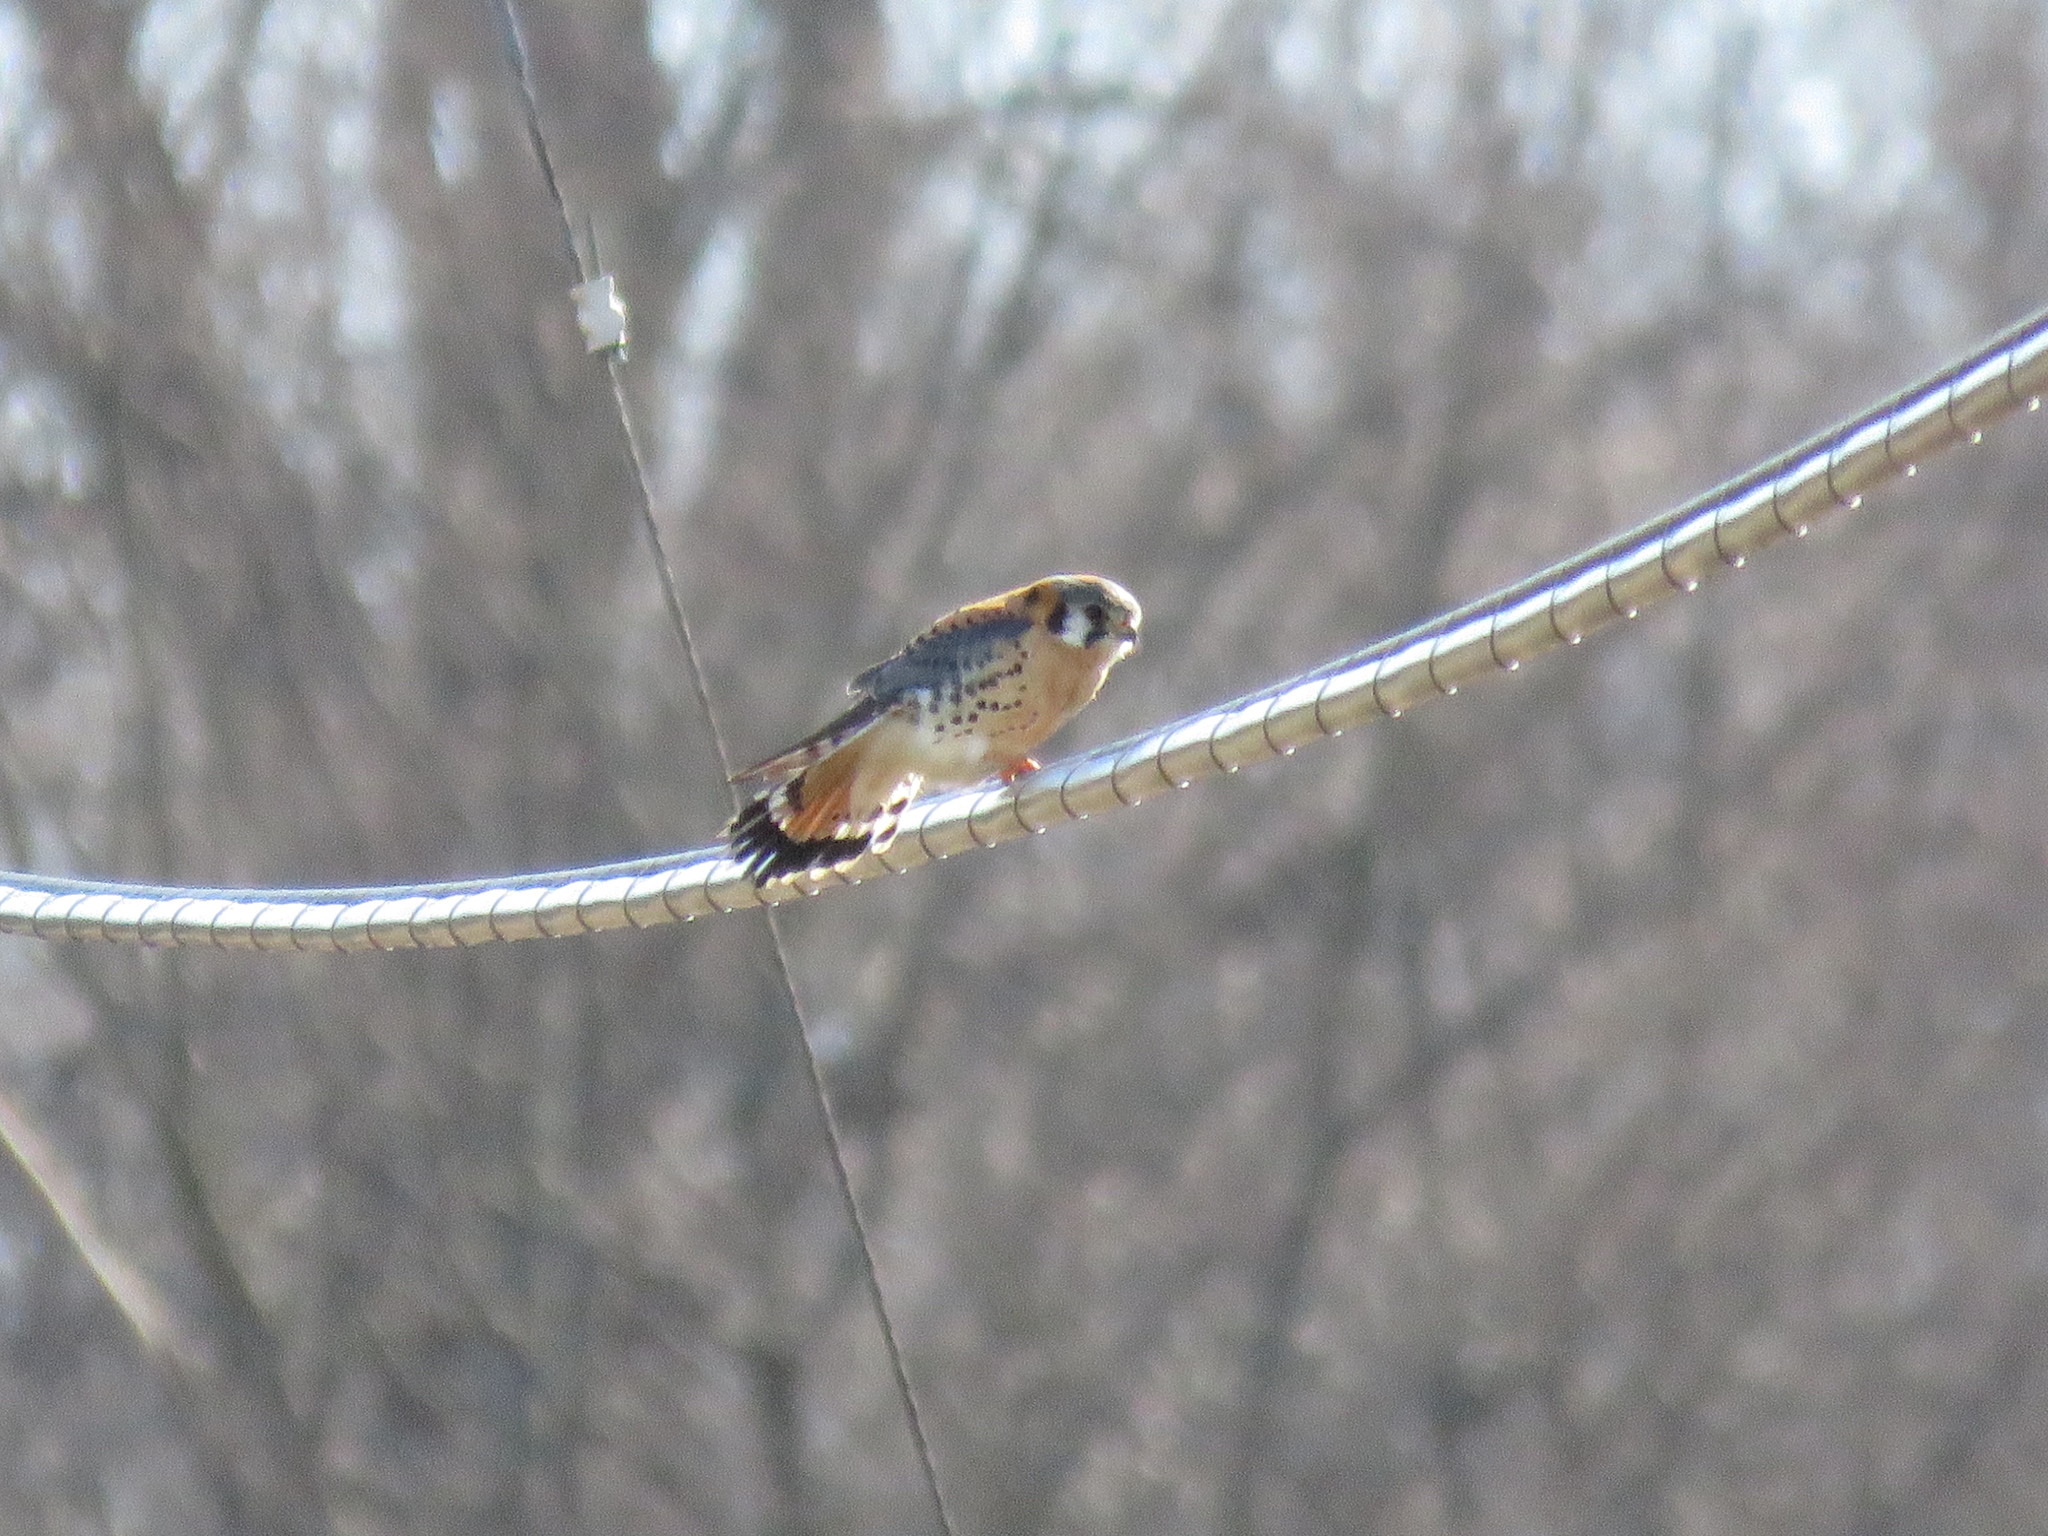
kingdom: Animalia
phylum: Chordata
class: Aves
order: Falconiformes
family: Falconidae
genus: Falco
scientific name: Falco sparverius
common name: American kestrel
